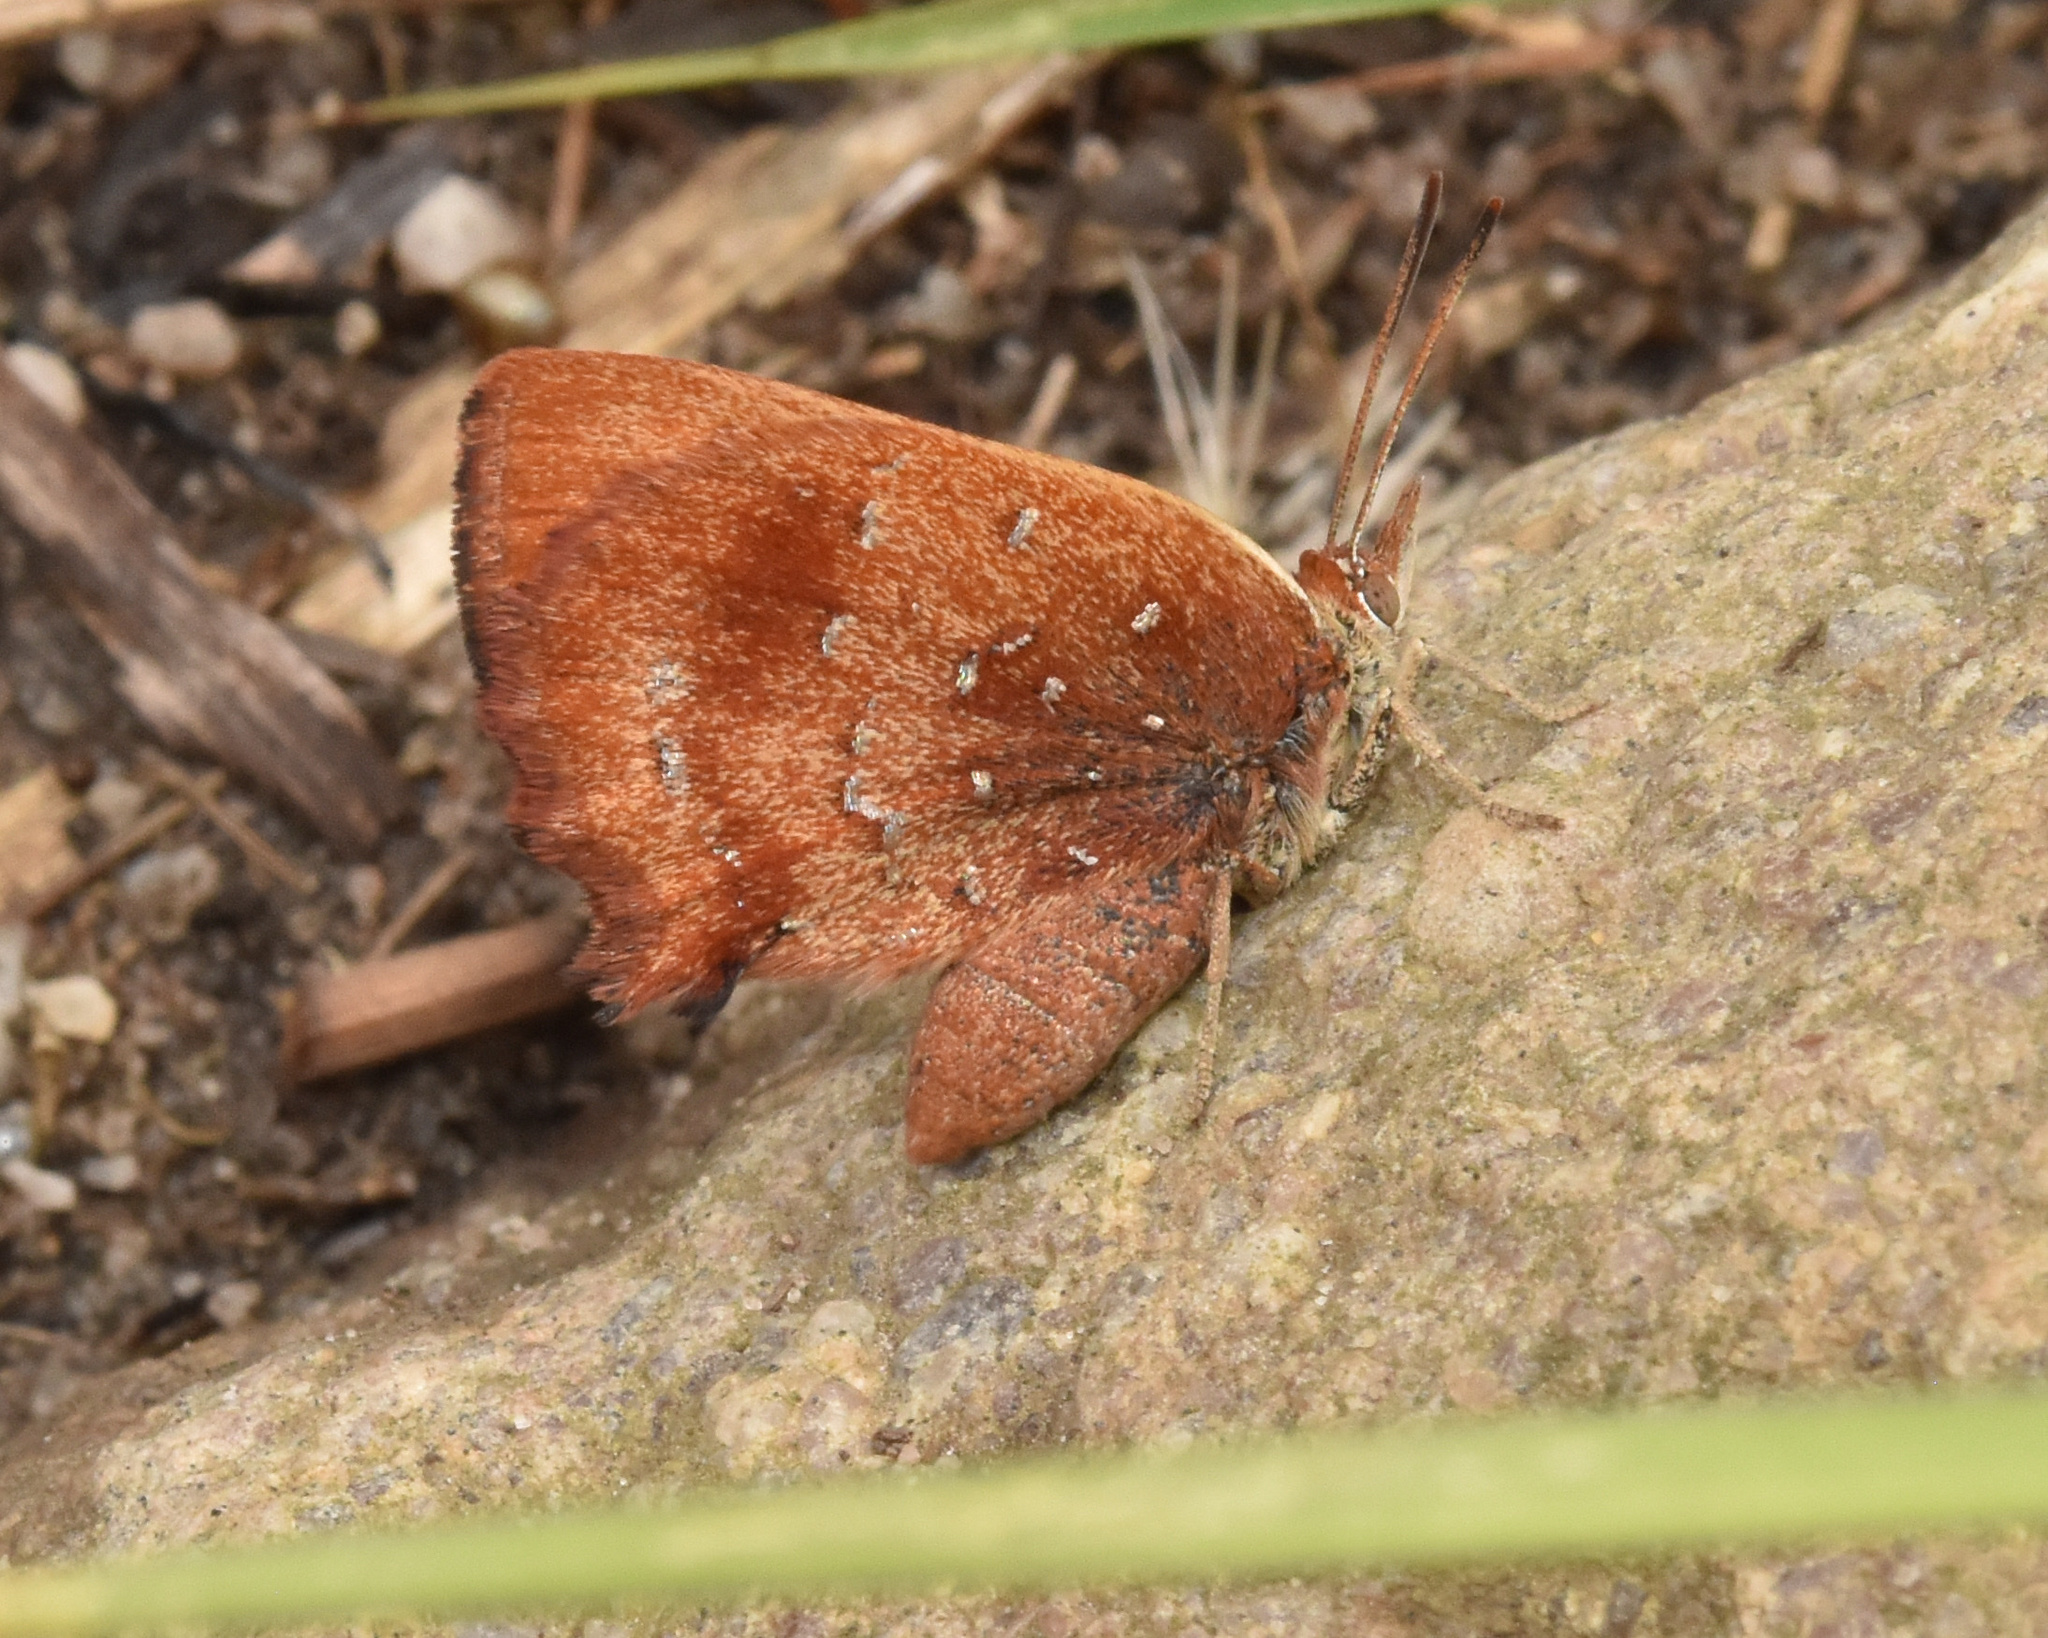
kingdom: Animalia
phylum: Arthropoda
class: Insecta
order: Lepidoptera
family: Lycaenidae
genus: Aloeides
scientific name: Aloeides aranda
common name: Aranda copper
